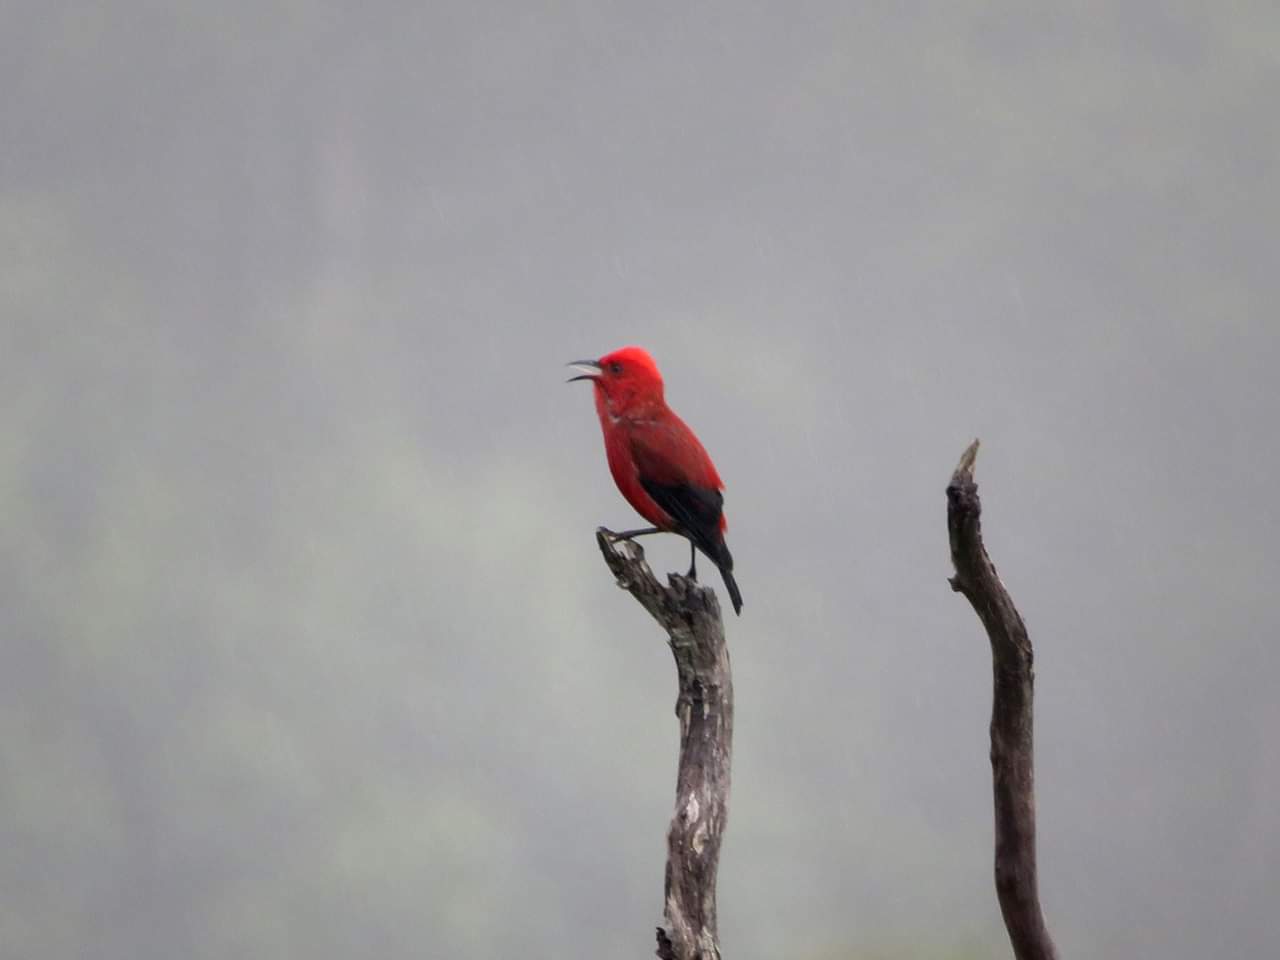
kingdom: Animalia
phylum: Chordata
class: Aves
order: Passeriformes
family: Fringillidae
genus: Himatione
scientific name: Himatione sanguinea
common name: Apapane
